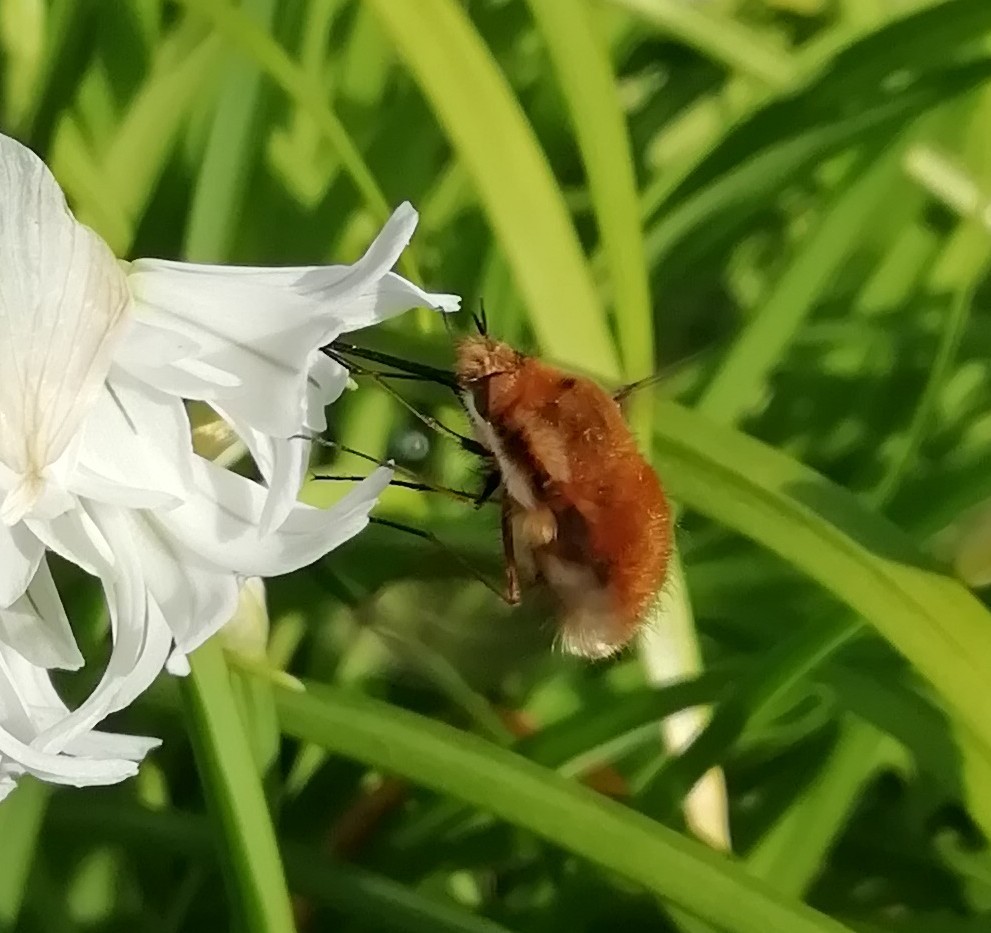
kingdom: Animalia
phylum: Arthropoda
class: Insecta
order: Diptera
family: Bombyliidae
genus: Bombylius
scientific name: Bombylius major
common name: Bee fly
